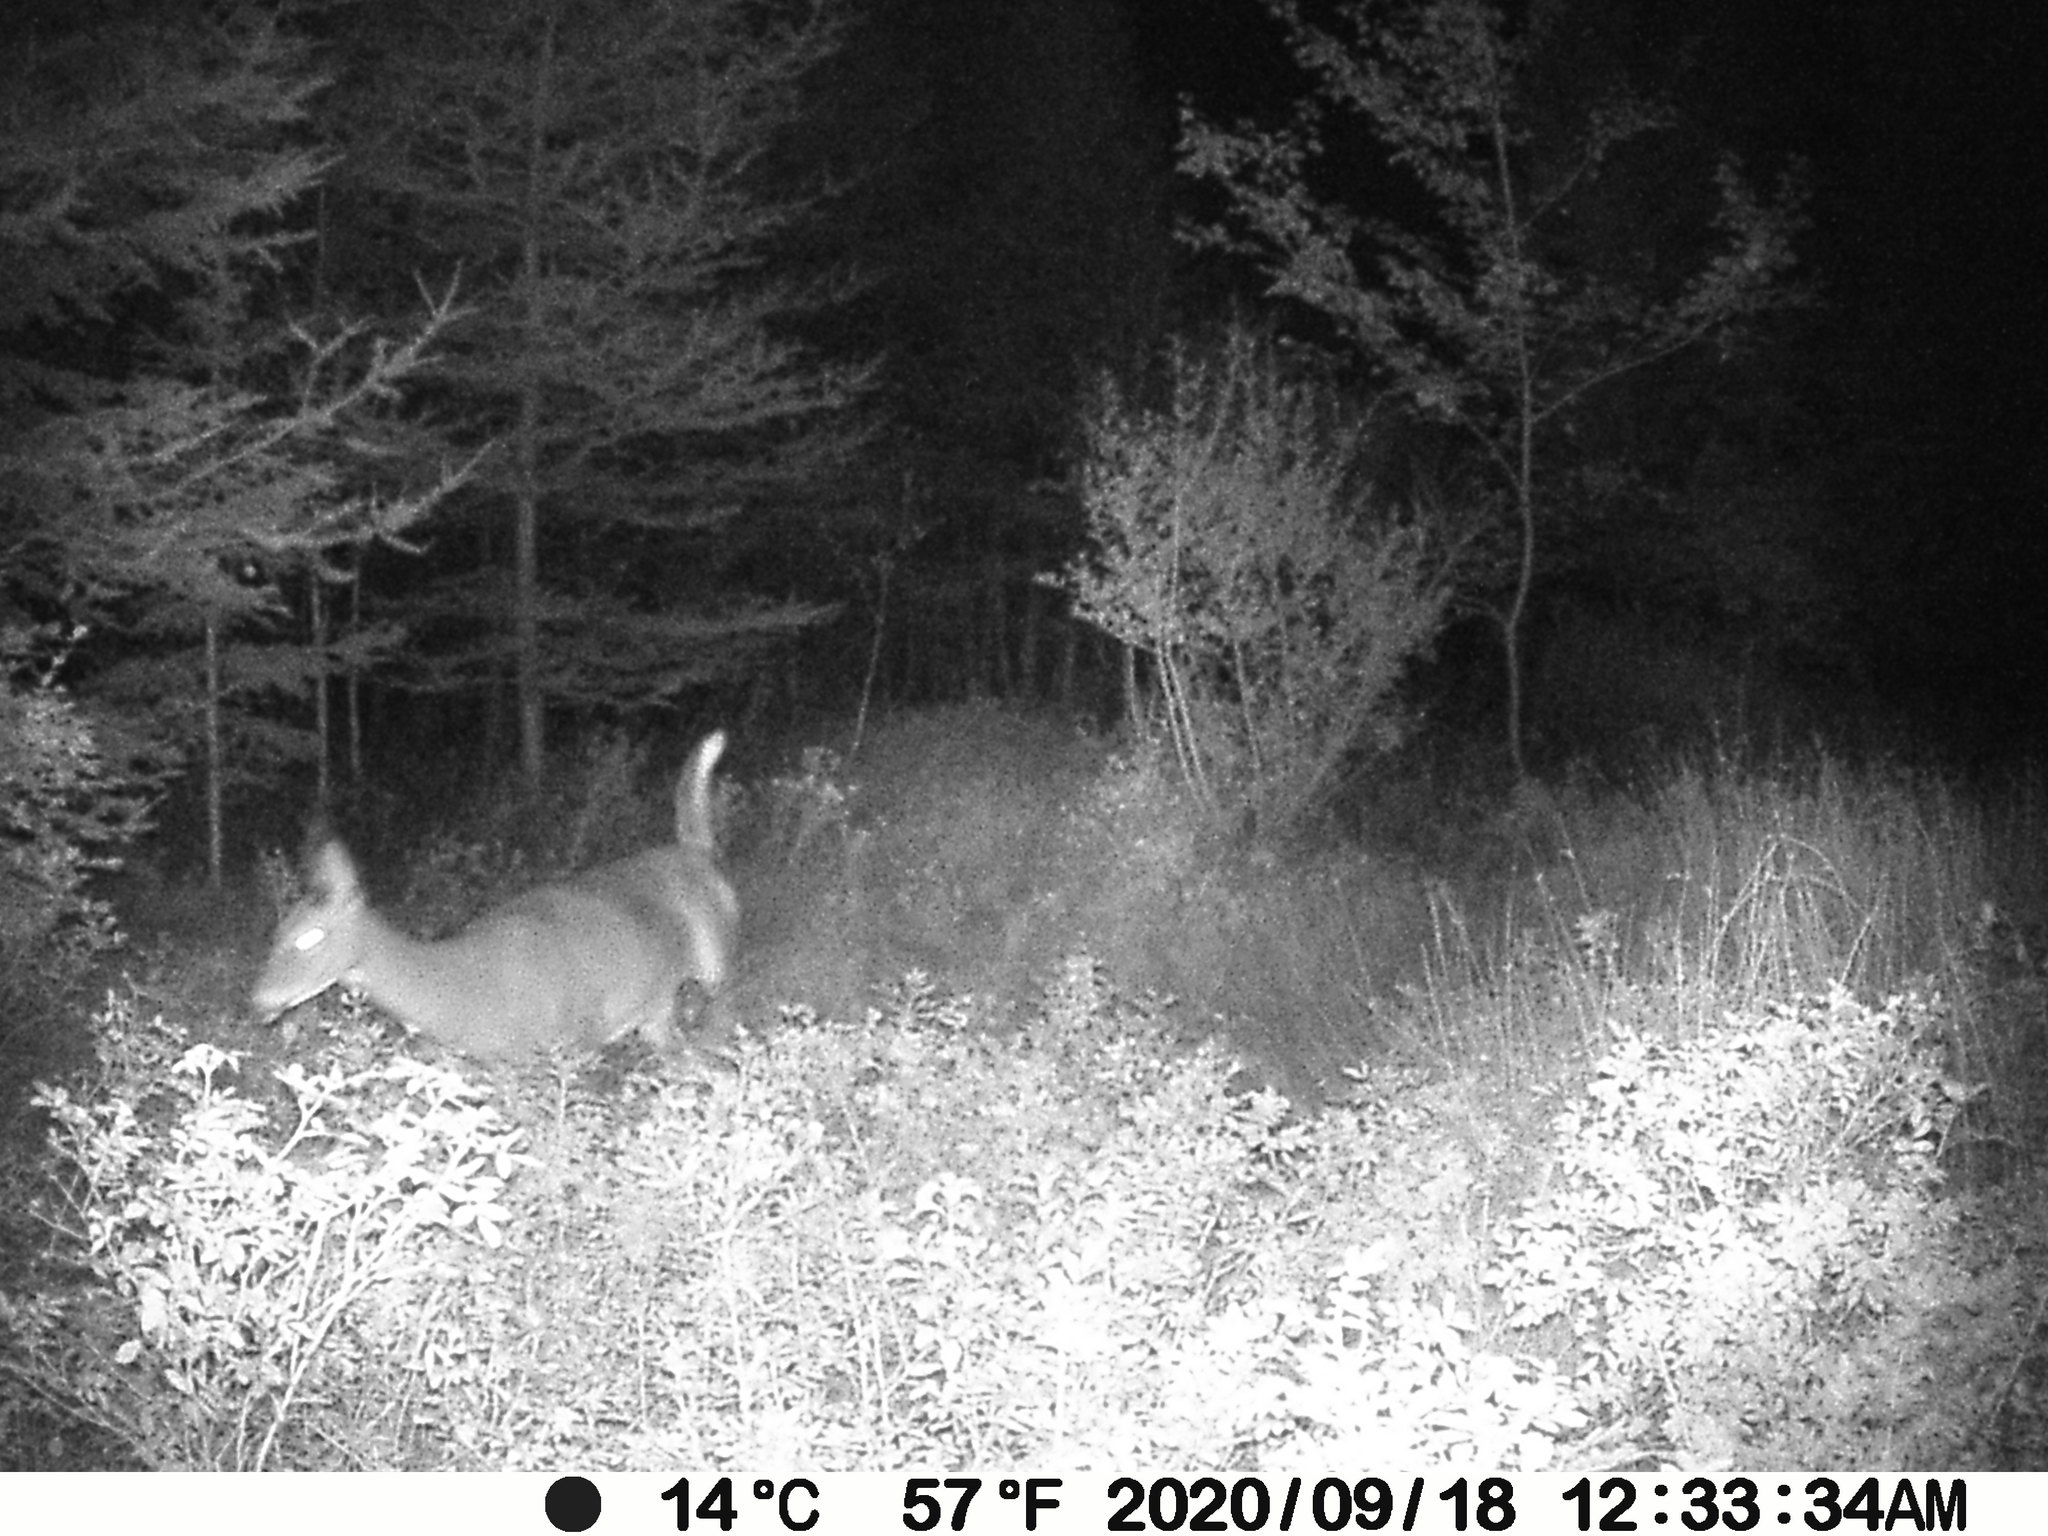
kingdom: Animalia
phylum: Chordata
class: Mammalia
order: Artiodactyla
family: Cervidae
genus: Odocoileus
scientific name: Odocoileus virginianus
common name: White-tailed deer
